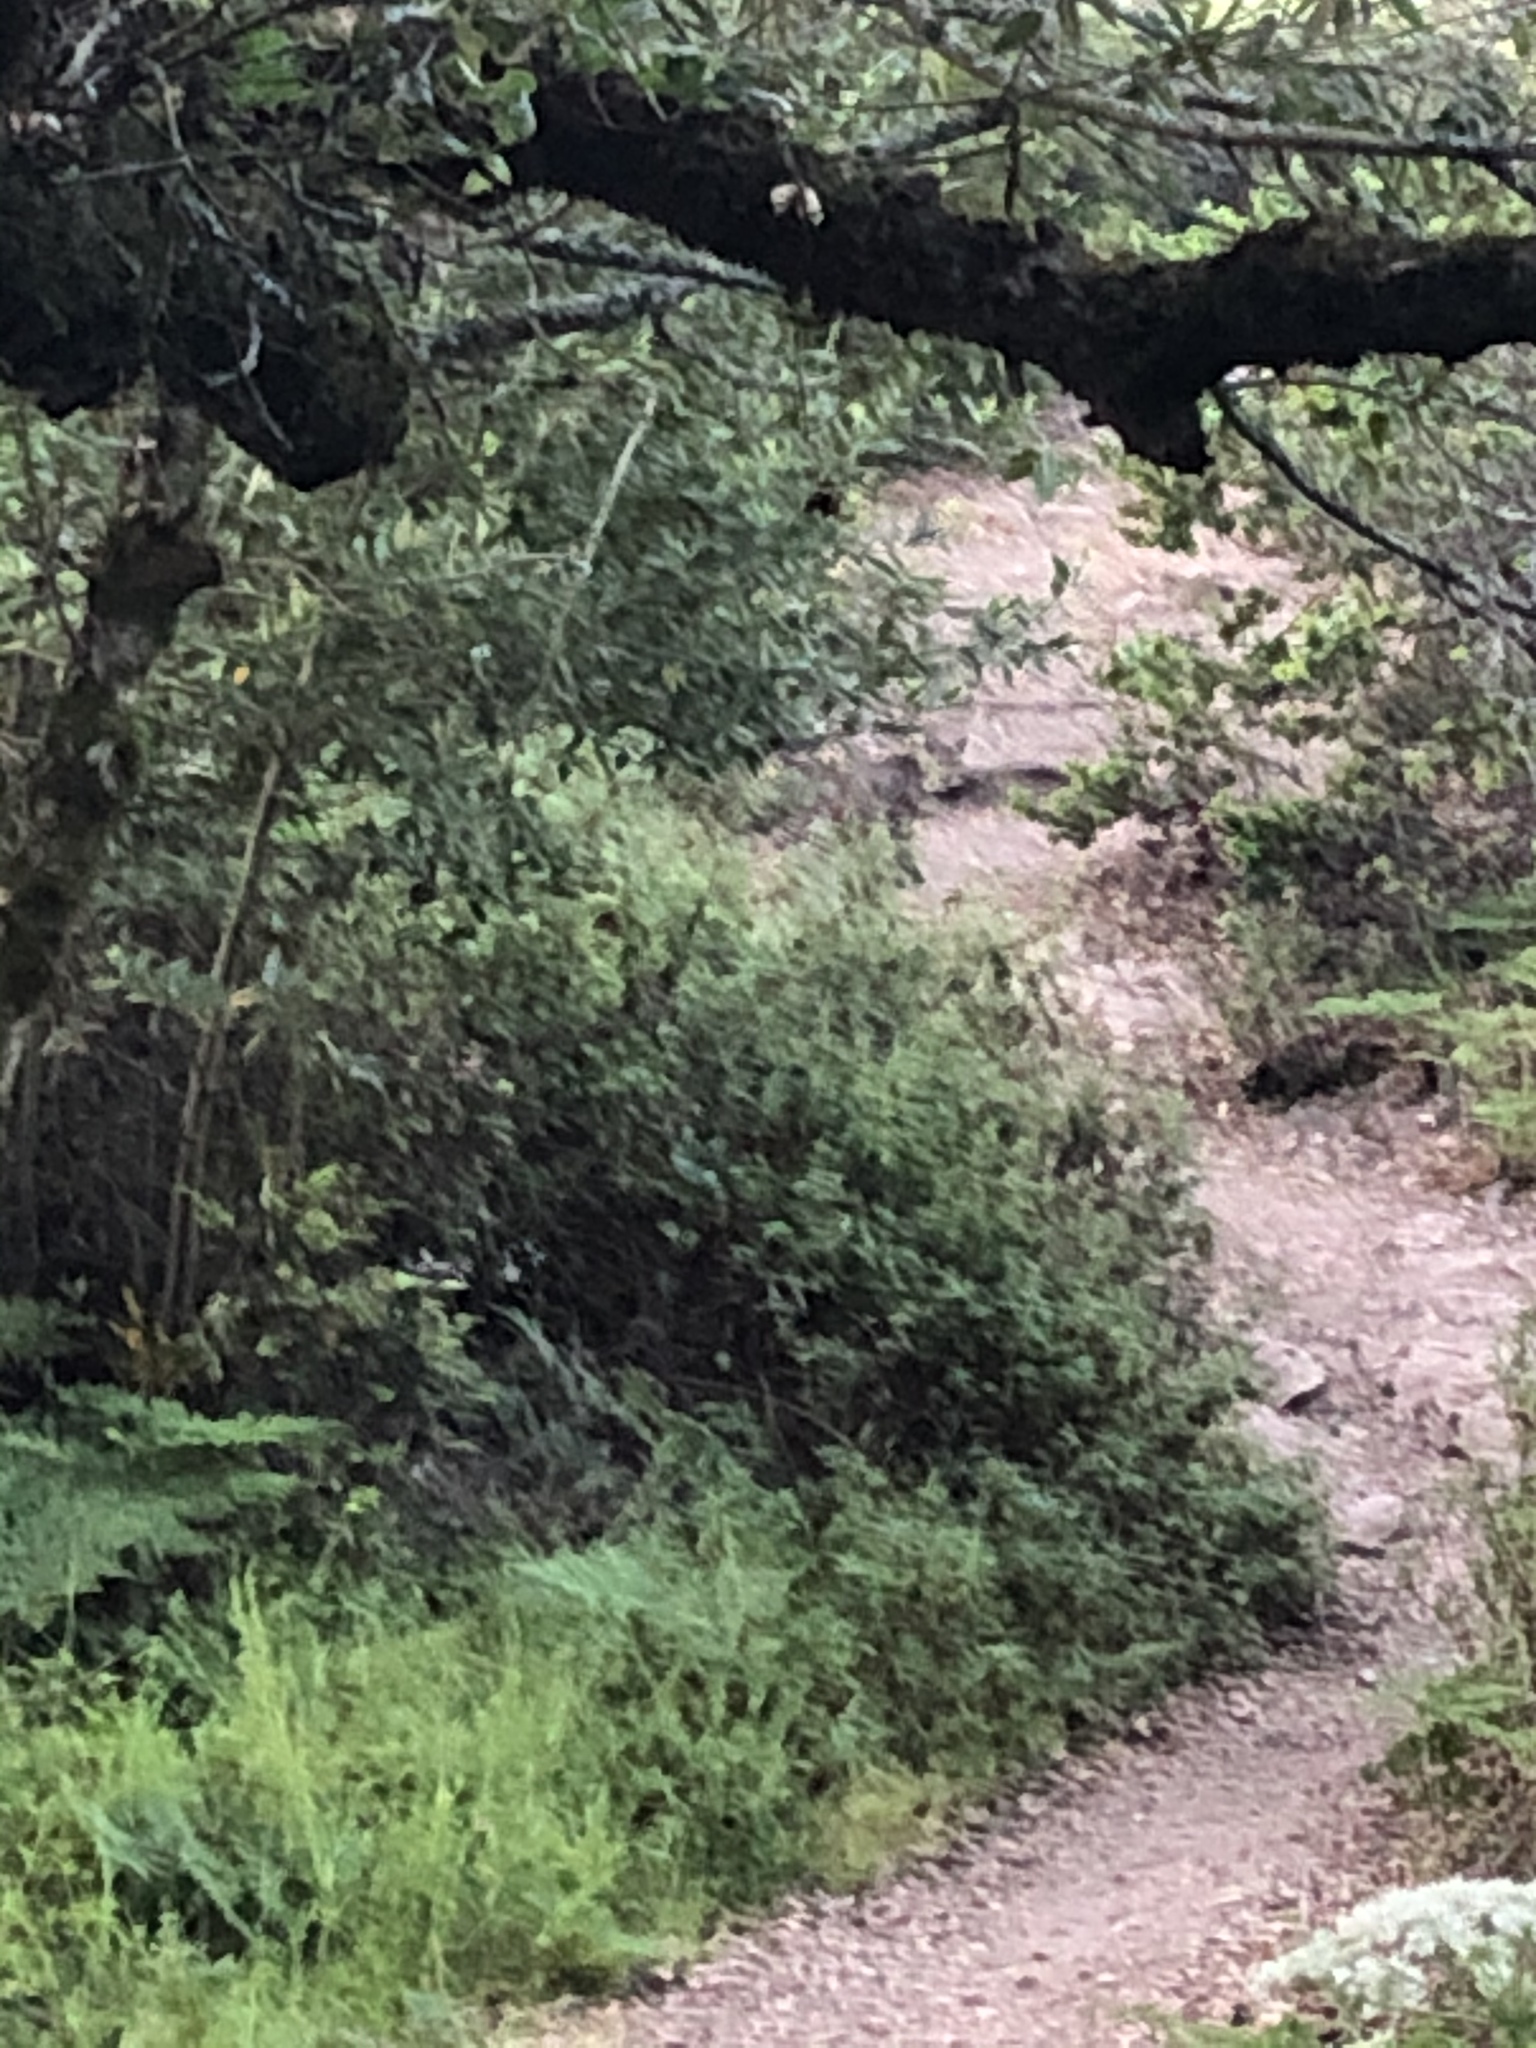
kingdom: Animalia
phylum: Chordata
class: Mammalia
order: Carnivora
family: Felidae
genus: Lynx
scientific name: Lynx rufus
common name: Bobcat
